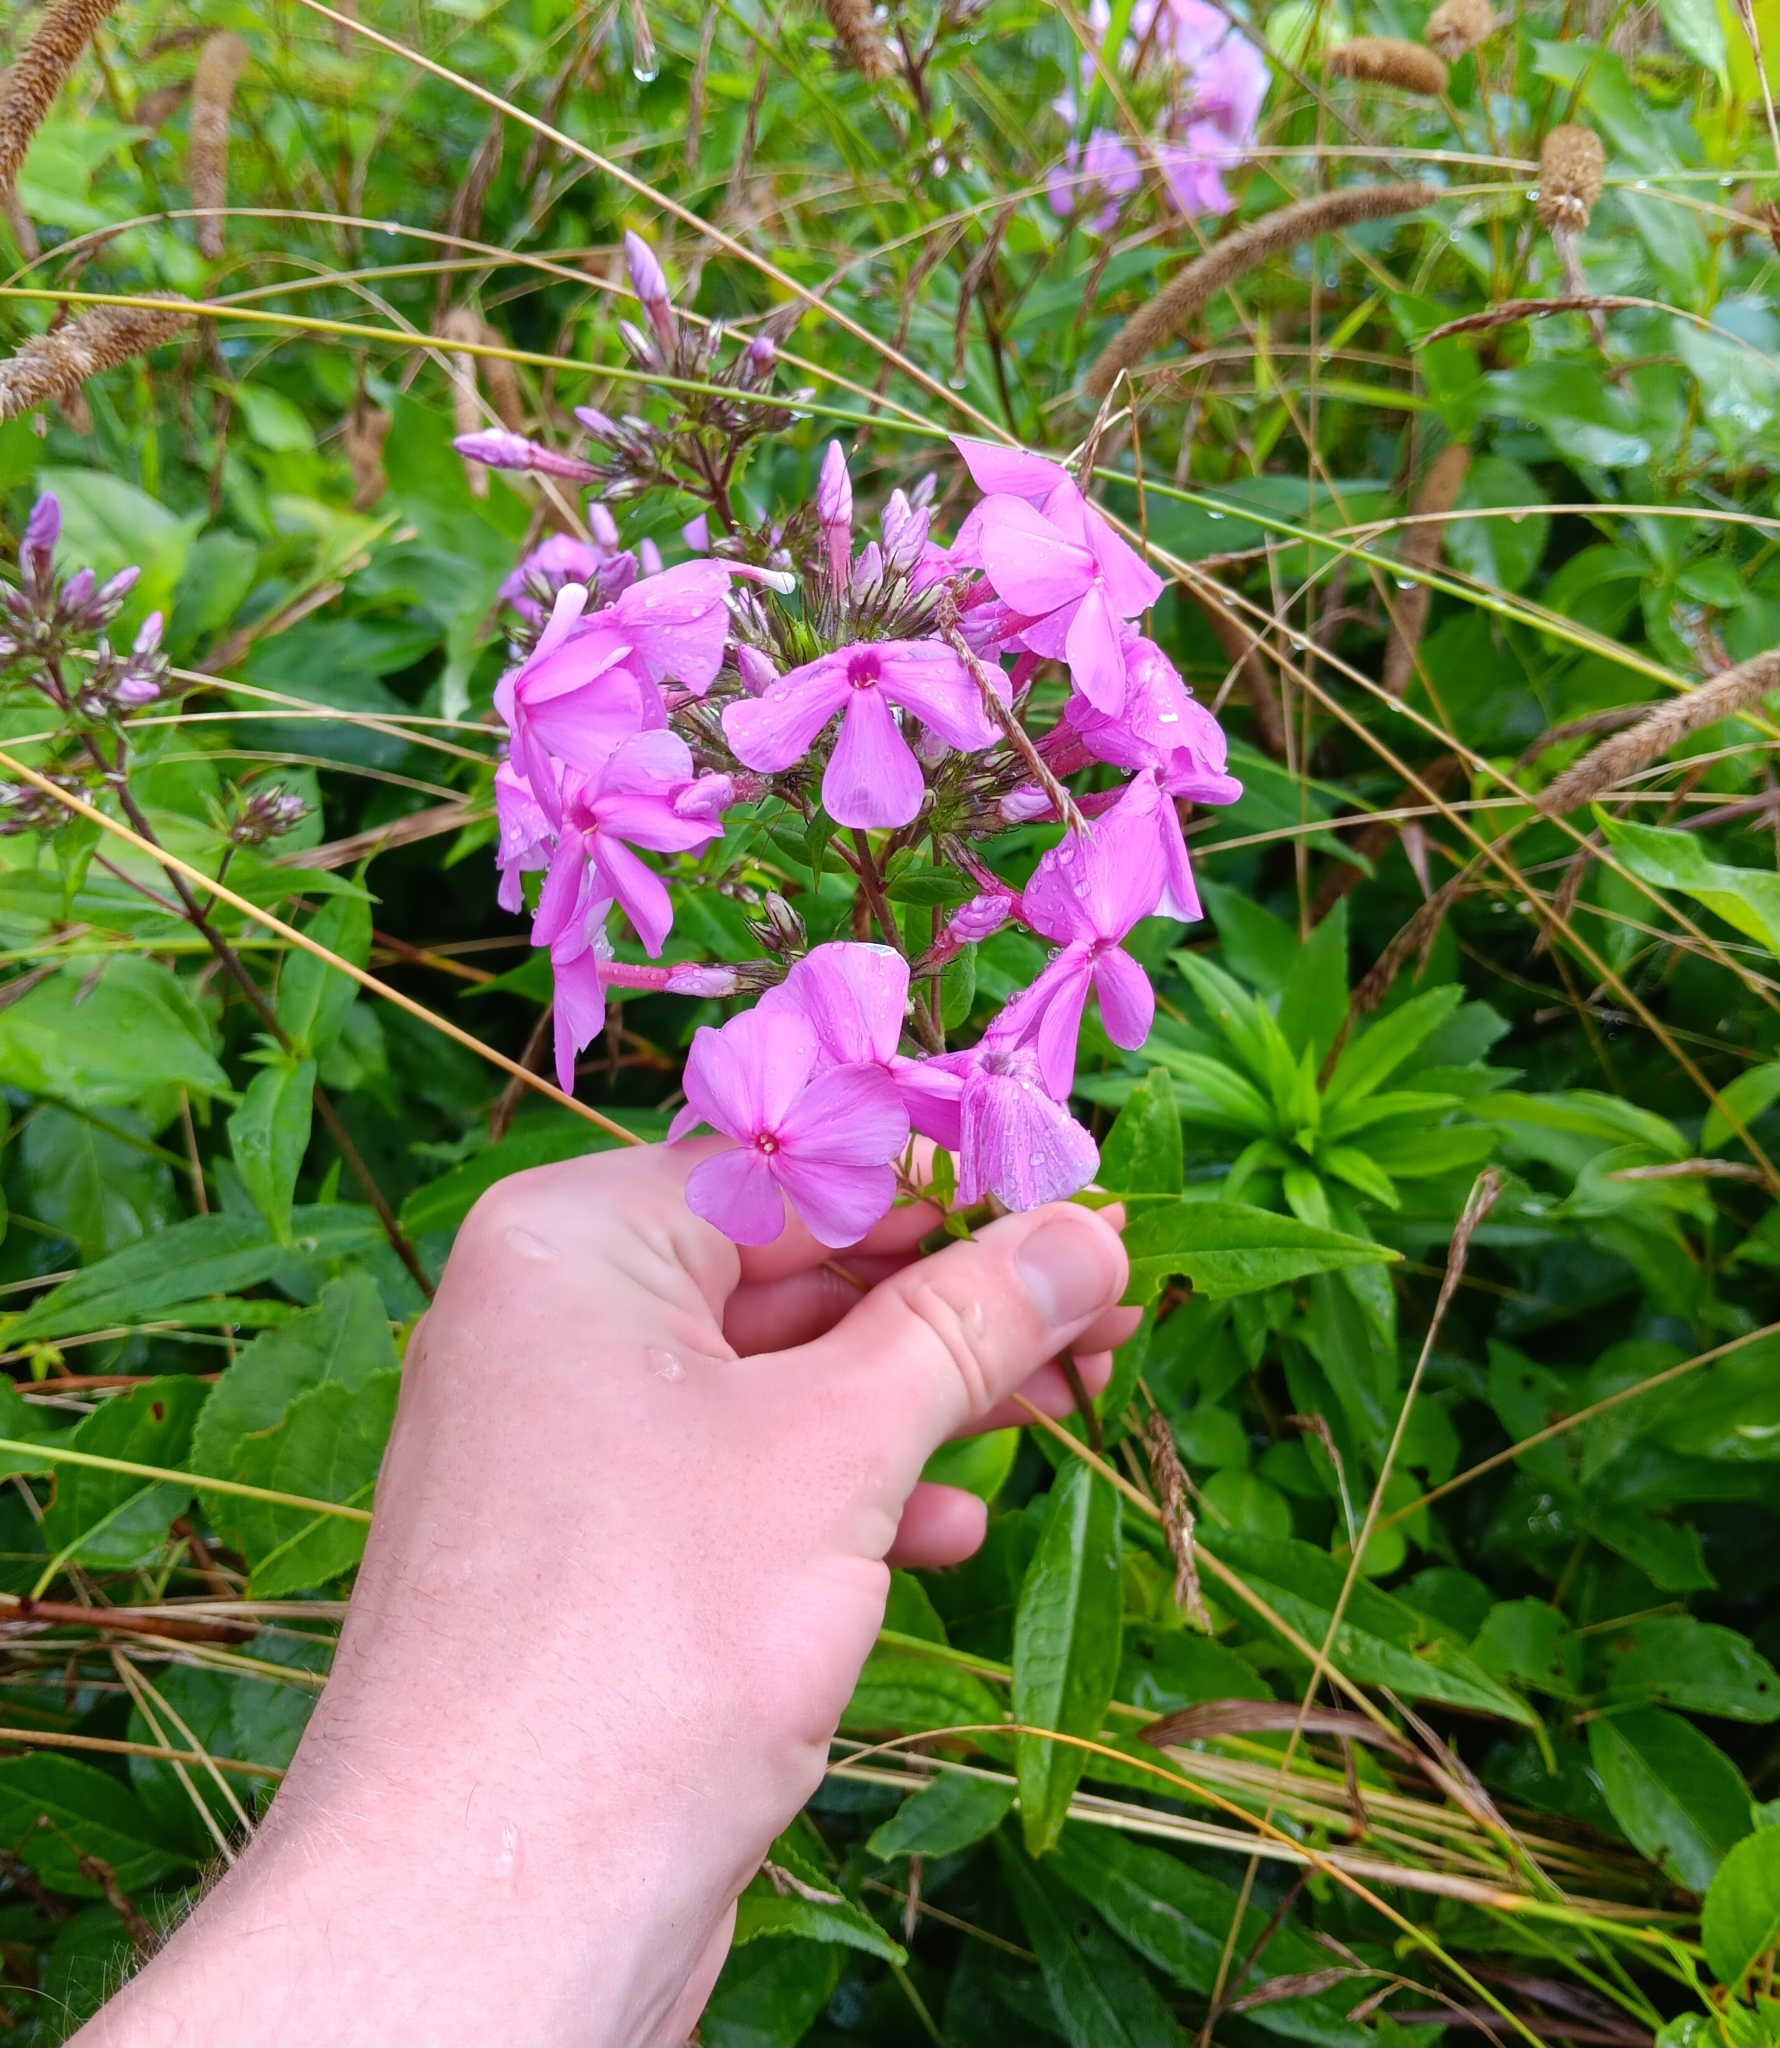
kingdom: Plantae
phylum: Tracheophyta
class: Magnoliopsida
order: Ericales
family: Polemoniaceae
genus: Phlox
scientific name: Phlox paniculata
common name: Fall phlox
